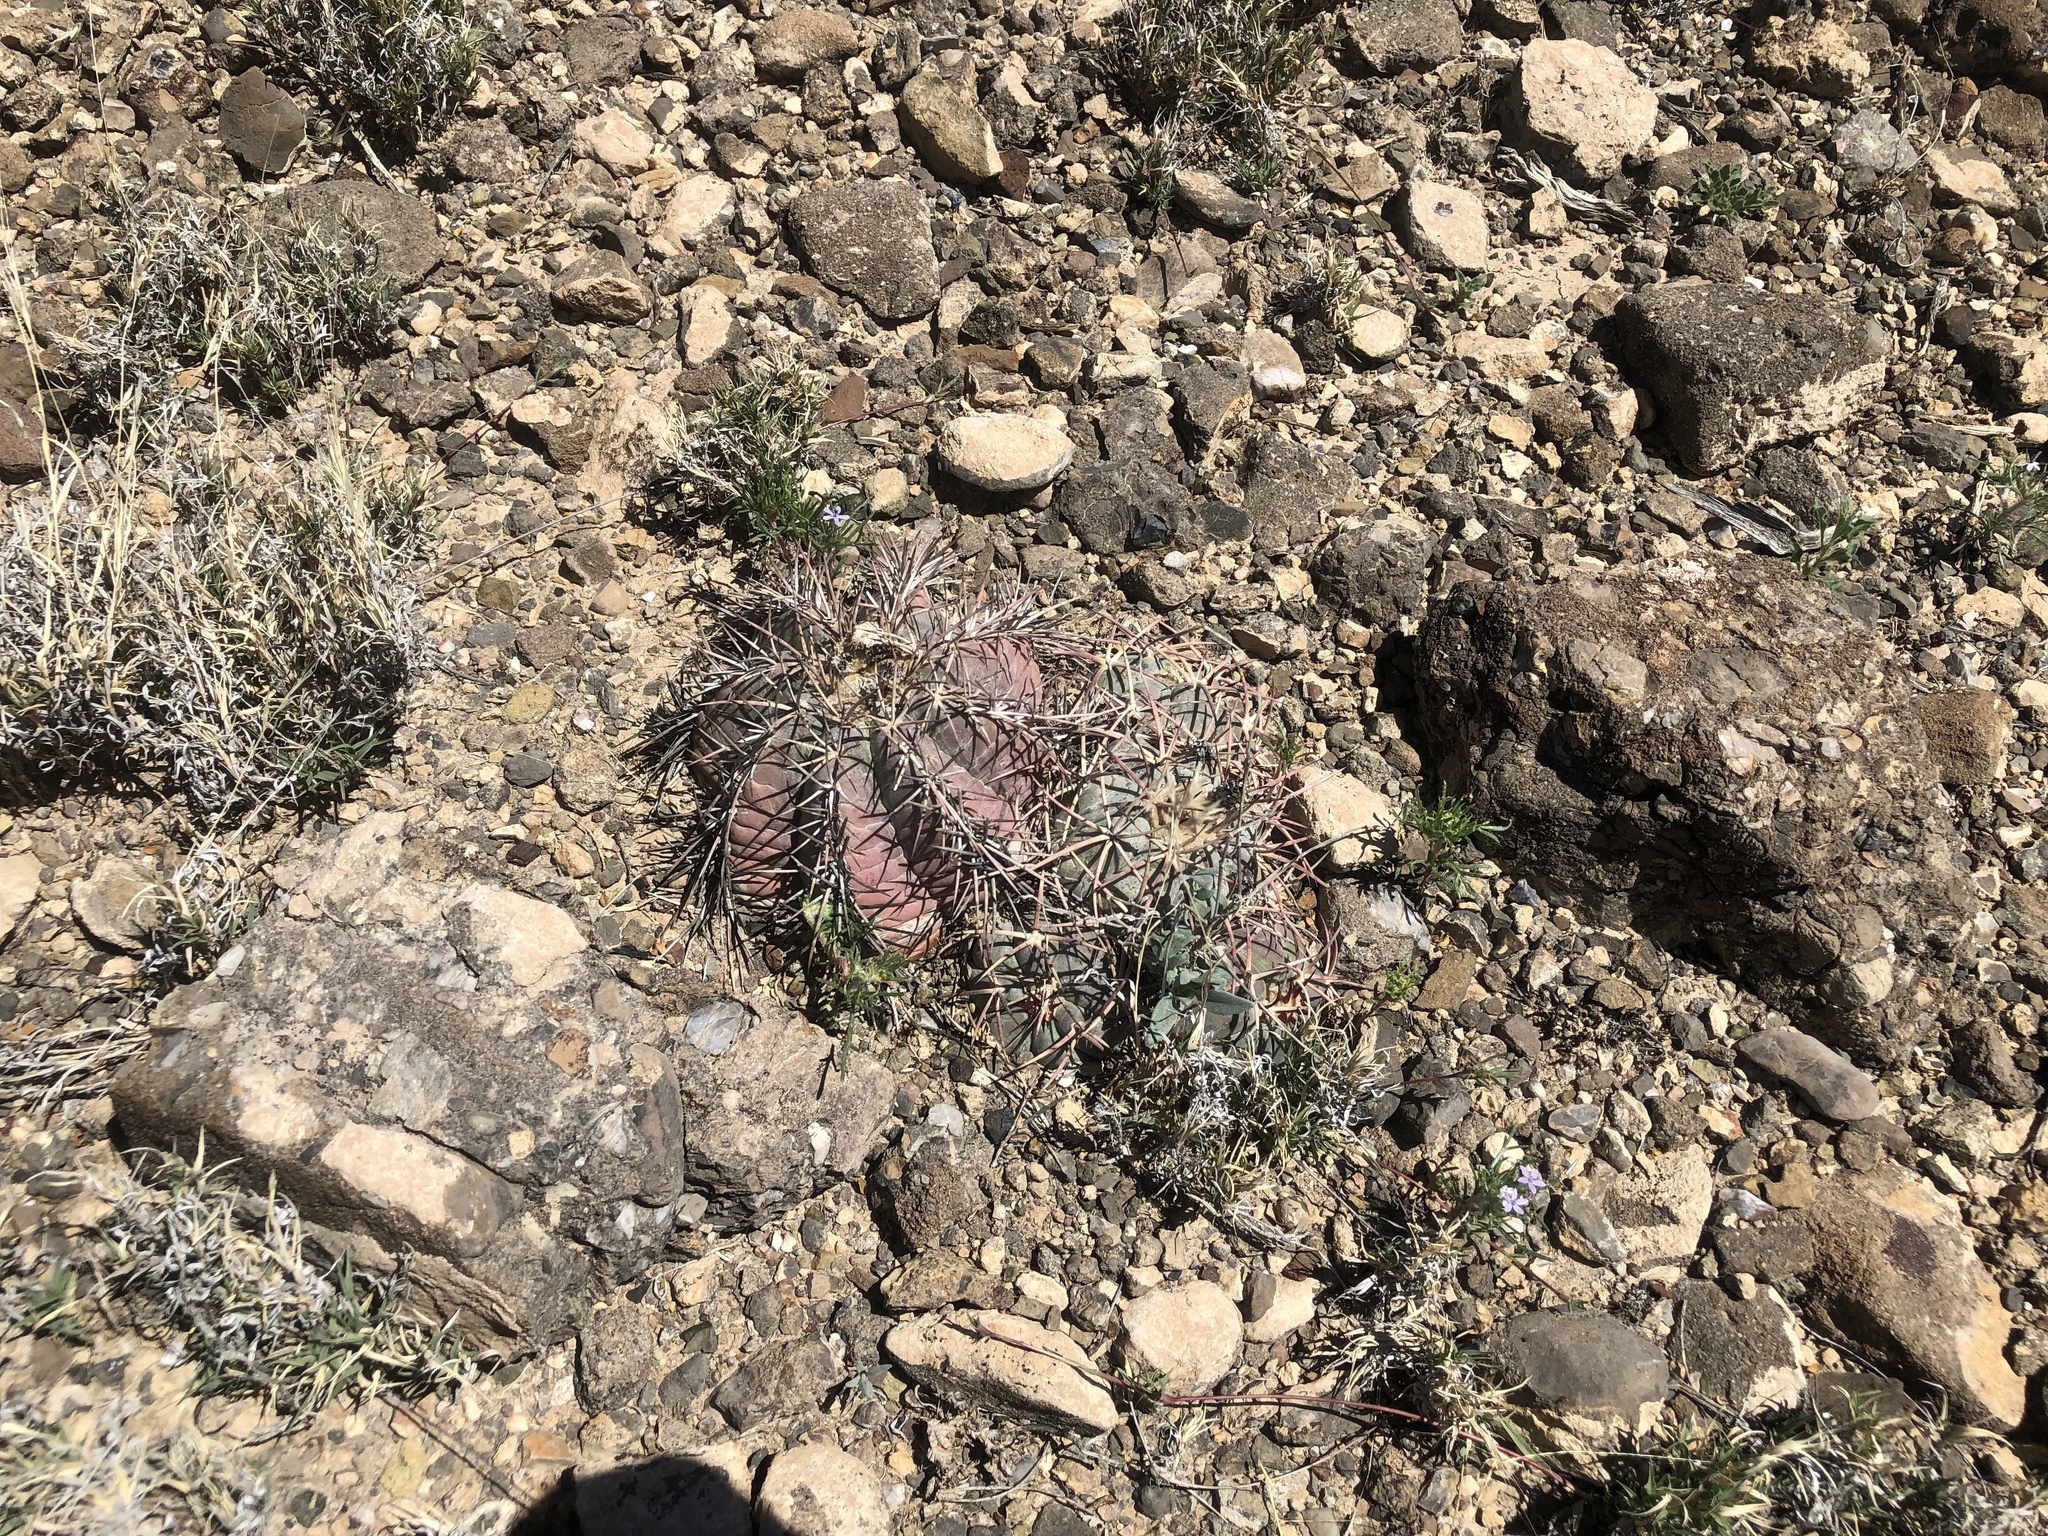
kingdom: Plantae
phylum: Tracheophyta
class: Magnoliopsida
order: Caryophyllales
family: Cactaceae
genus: Echinocactus
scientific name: Echinocactus horizonthalonius
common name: Devilshead
